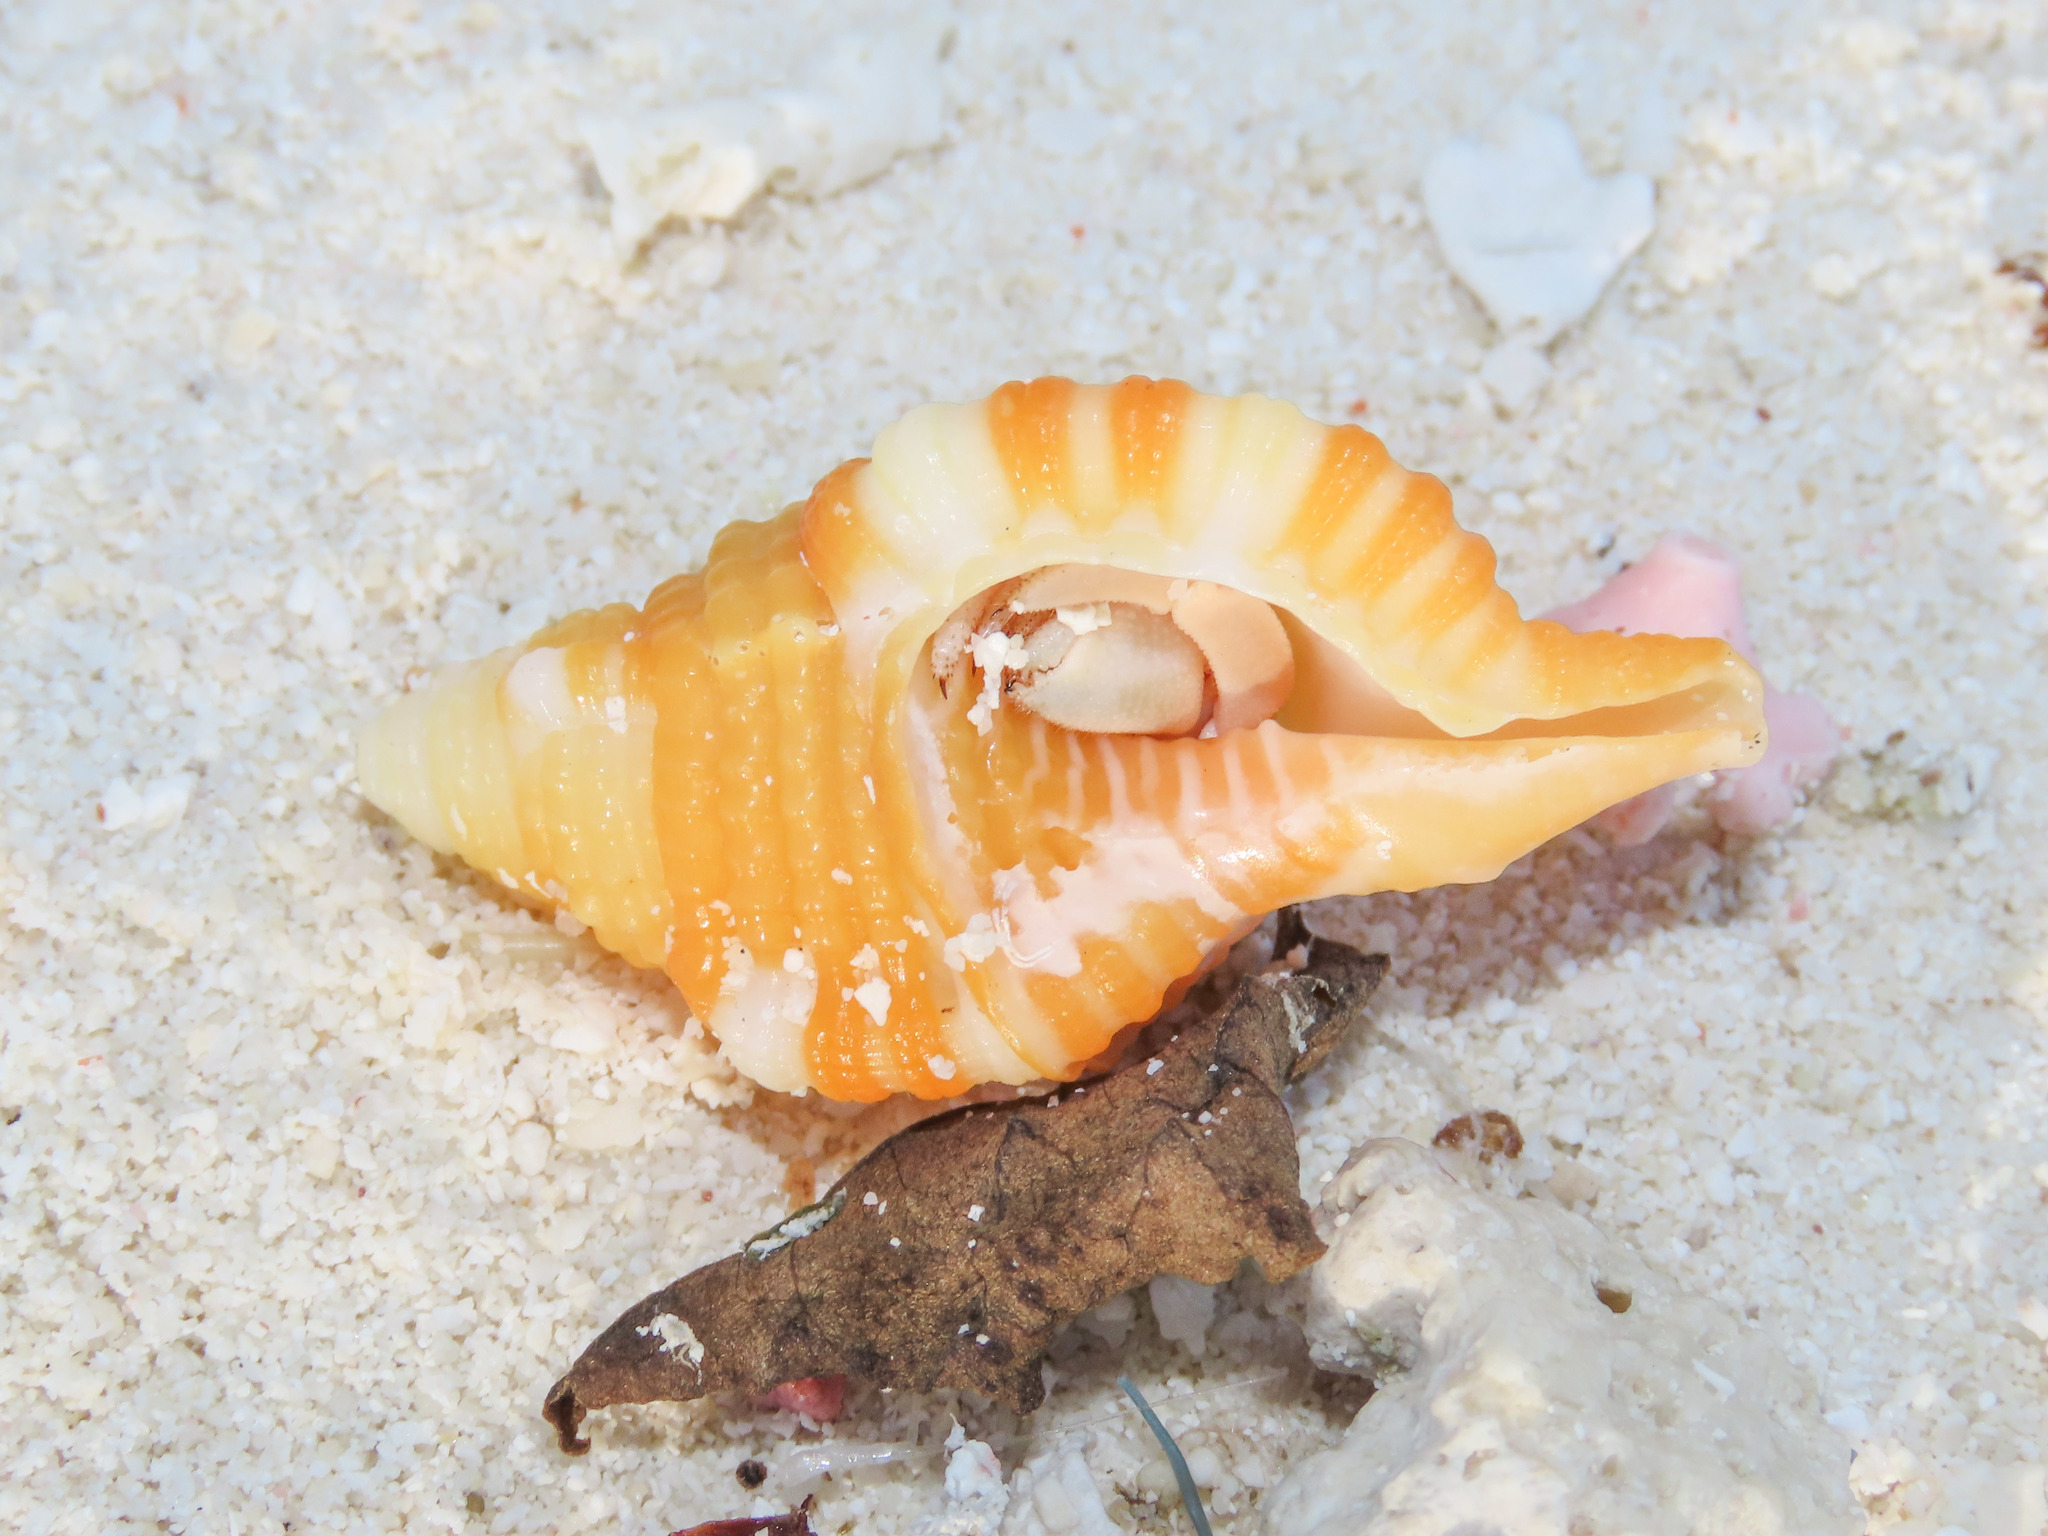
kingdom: Animalia
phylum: Mollusca
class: Gastropoda
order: Littorinimorpha
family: Cymatiidae
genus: Septa
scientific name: Septa rubecula
